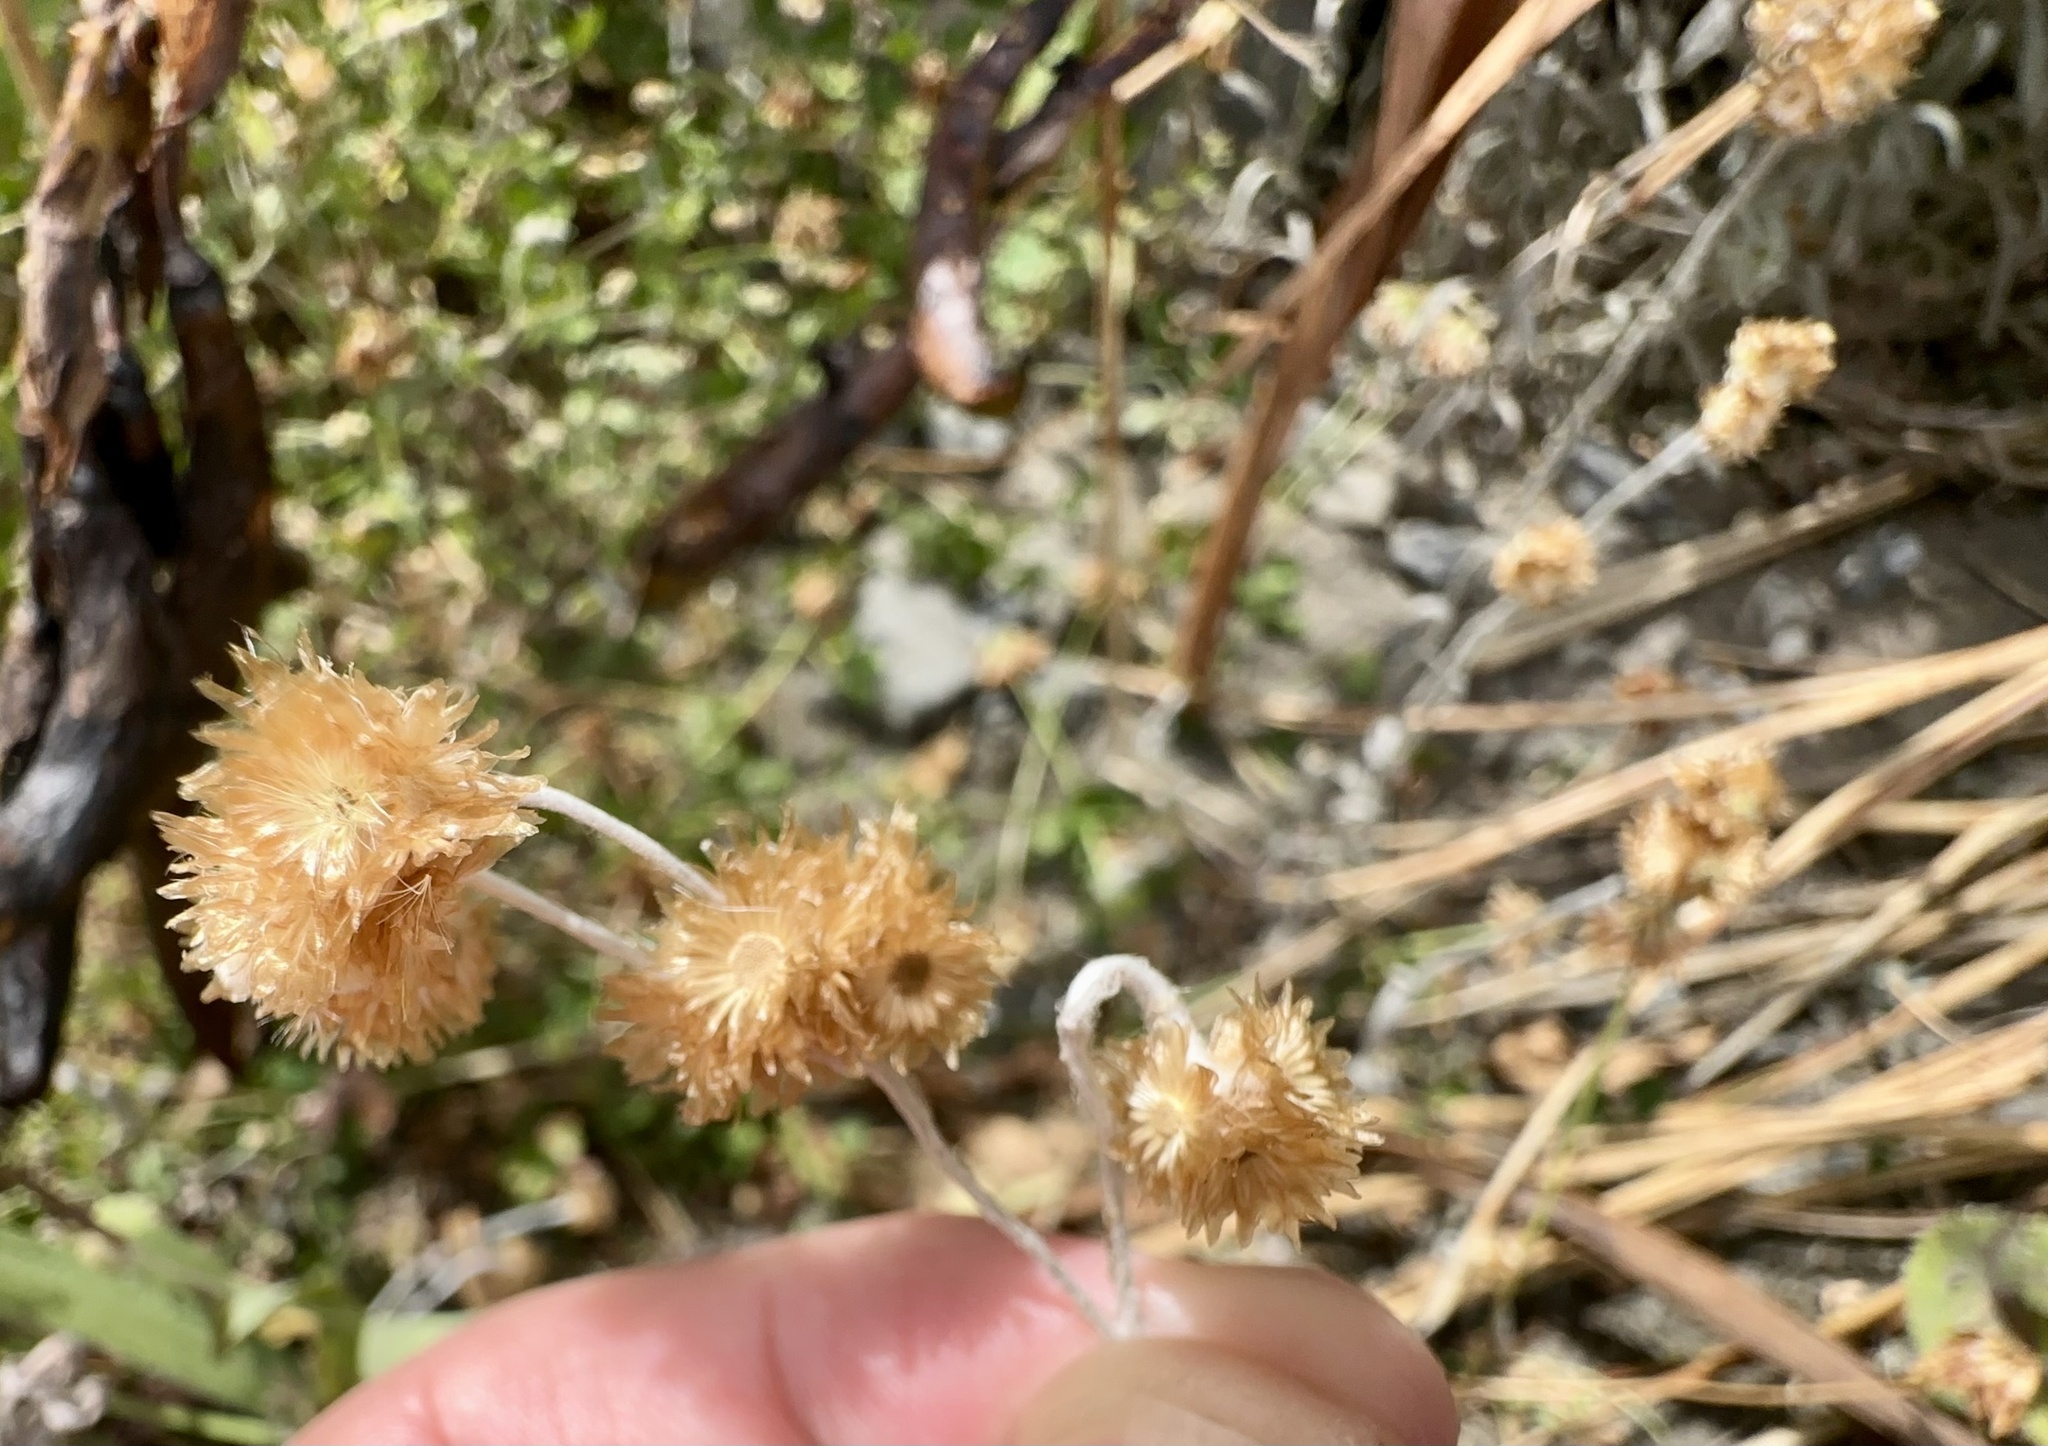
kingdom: Plantae
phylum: Tracheophyta
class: Magnoliopsida
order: Asterales
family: Asteraceae
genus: Pseudognaphalium
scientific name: Pseudognaphalium
